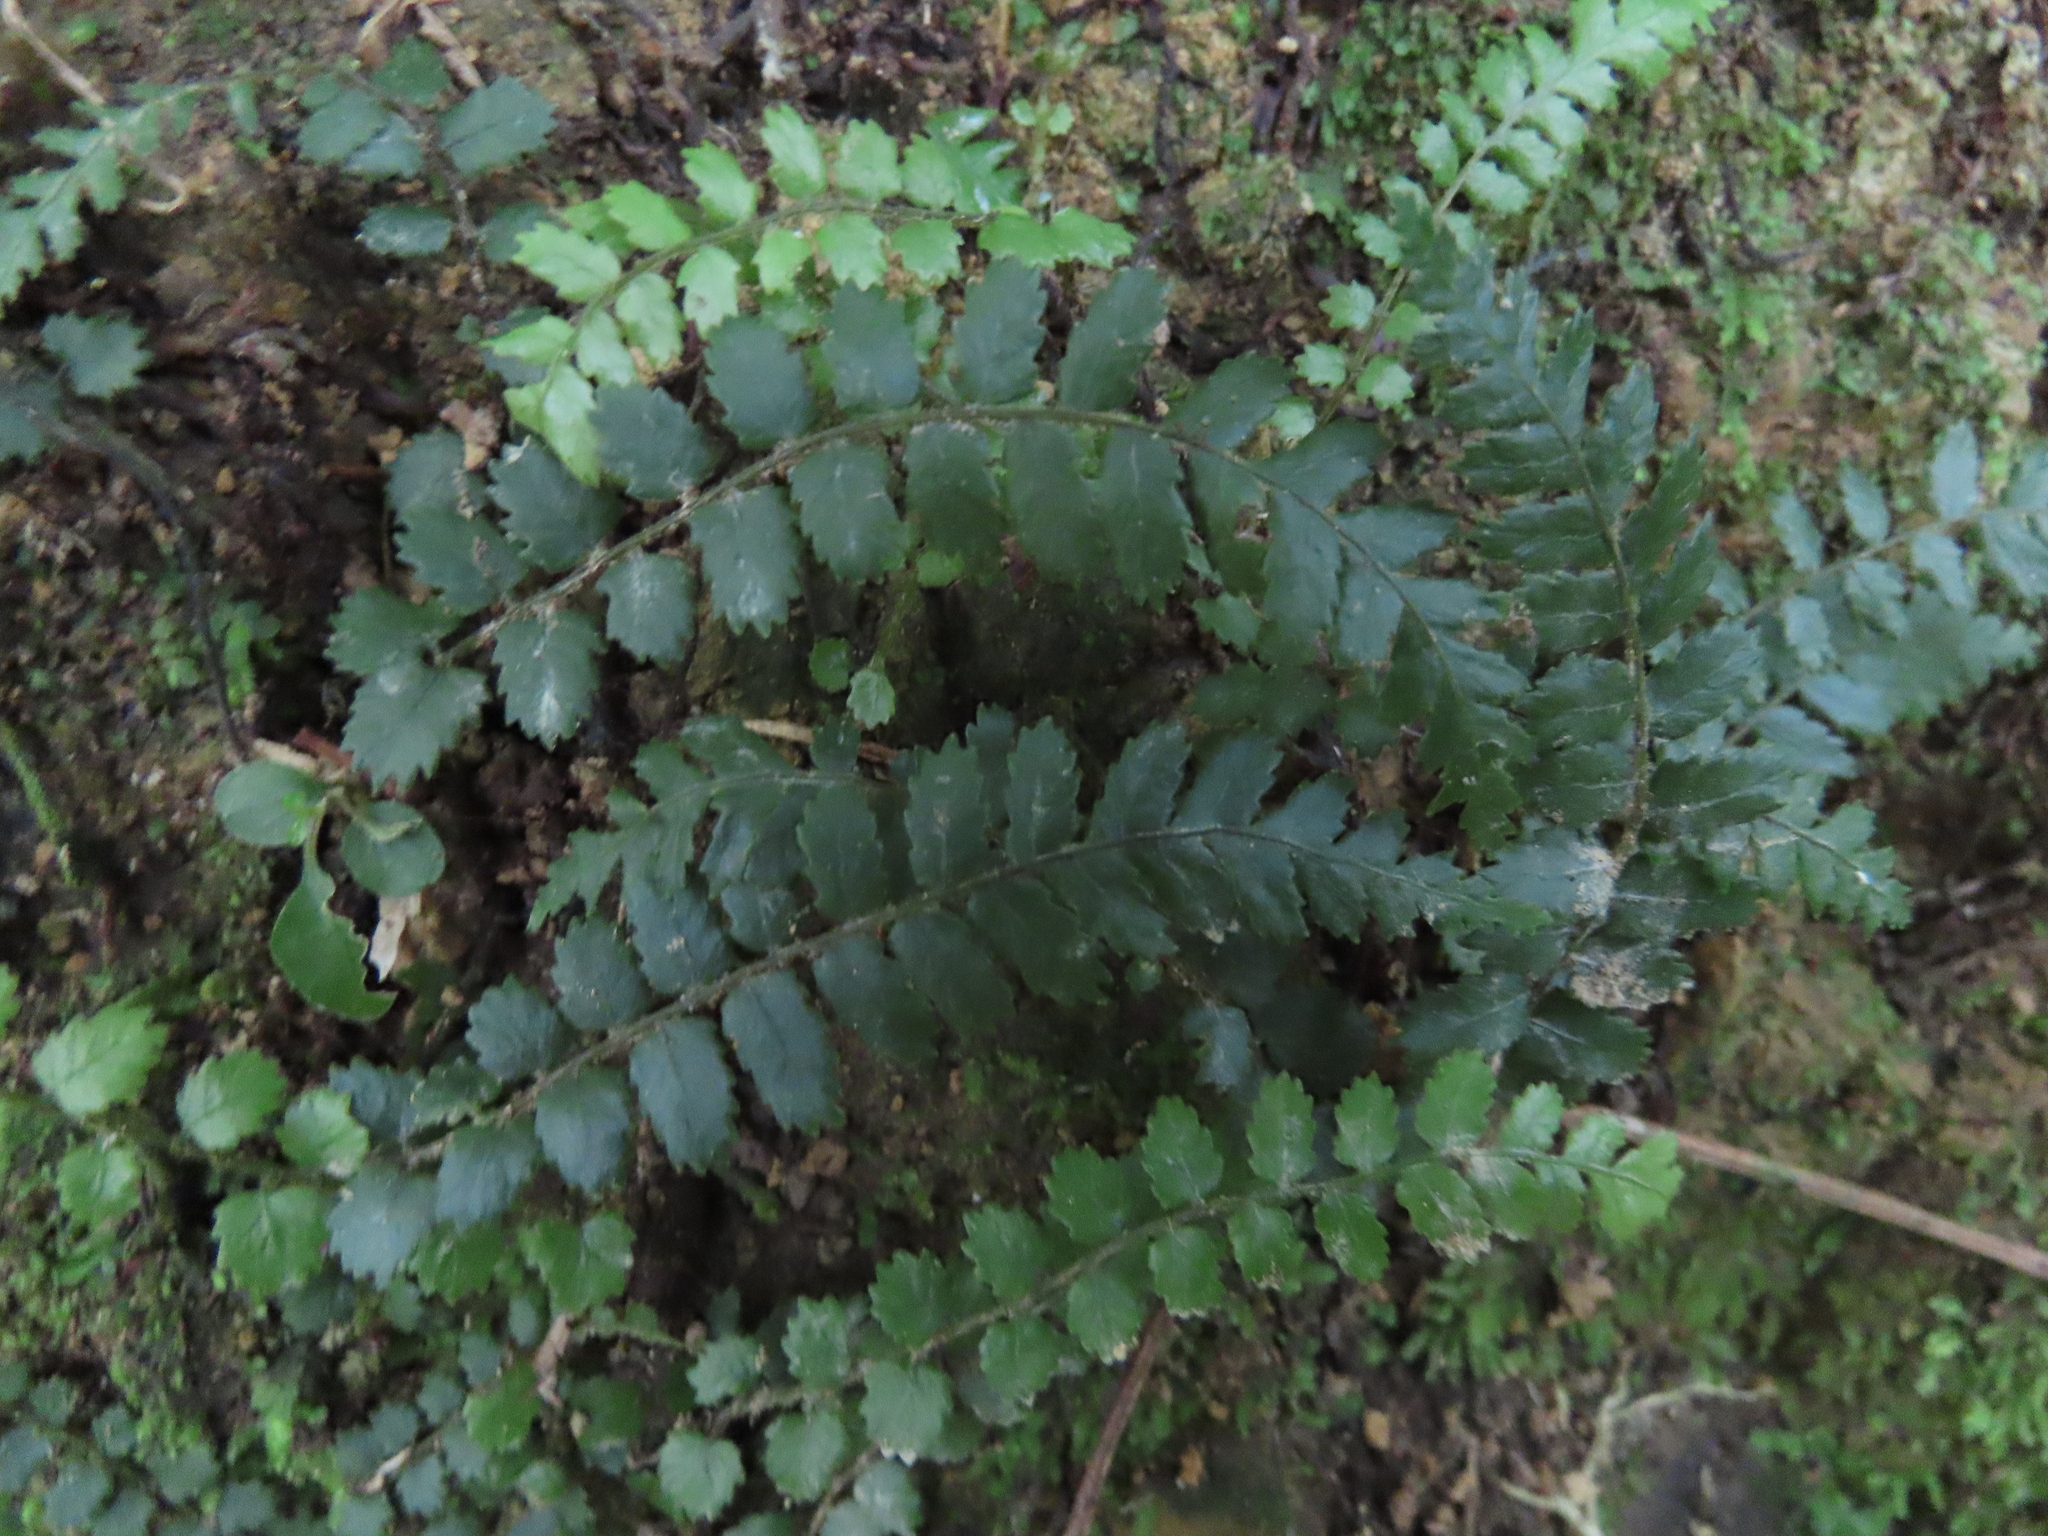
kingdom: Plantae
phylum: Tracheophyta
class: Polypodiopsida
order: Polypodiales
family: Blechnaceae
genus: Icarus
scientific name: Icarus filiformis
